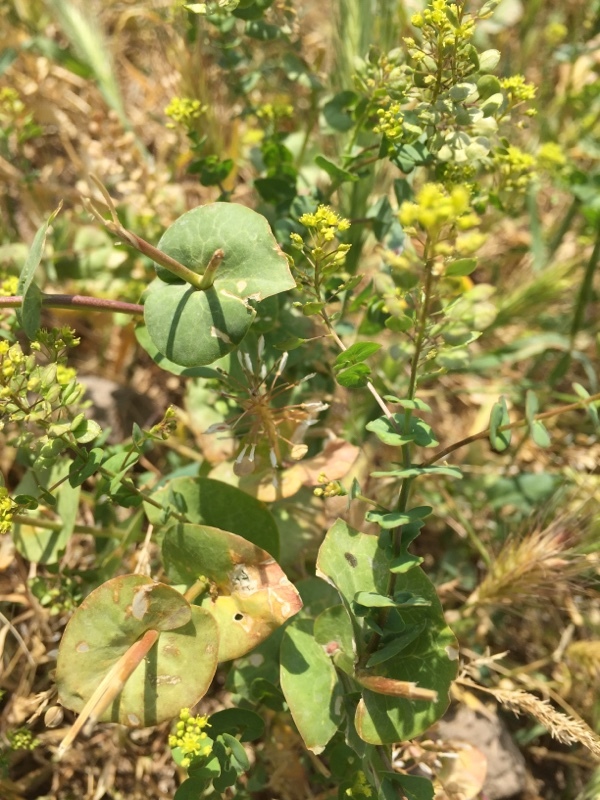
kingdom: Plantae
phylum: Tracheophyta
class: Magnoliopsida
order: Brassicales
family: Brassicaceae
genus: Lepidium
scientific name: Lepidium perfoliatum
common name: Perfoliate pepperwort
